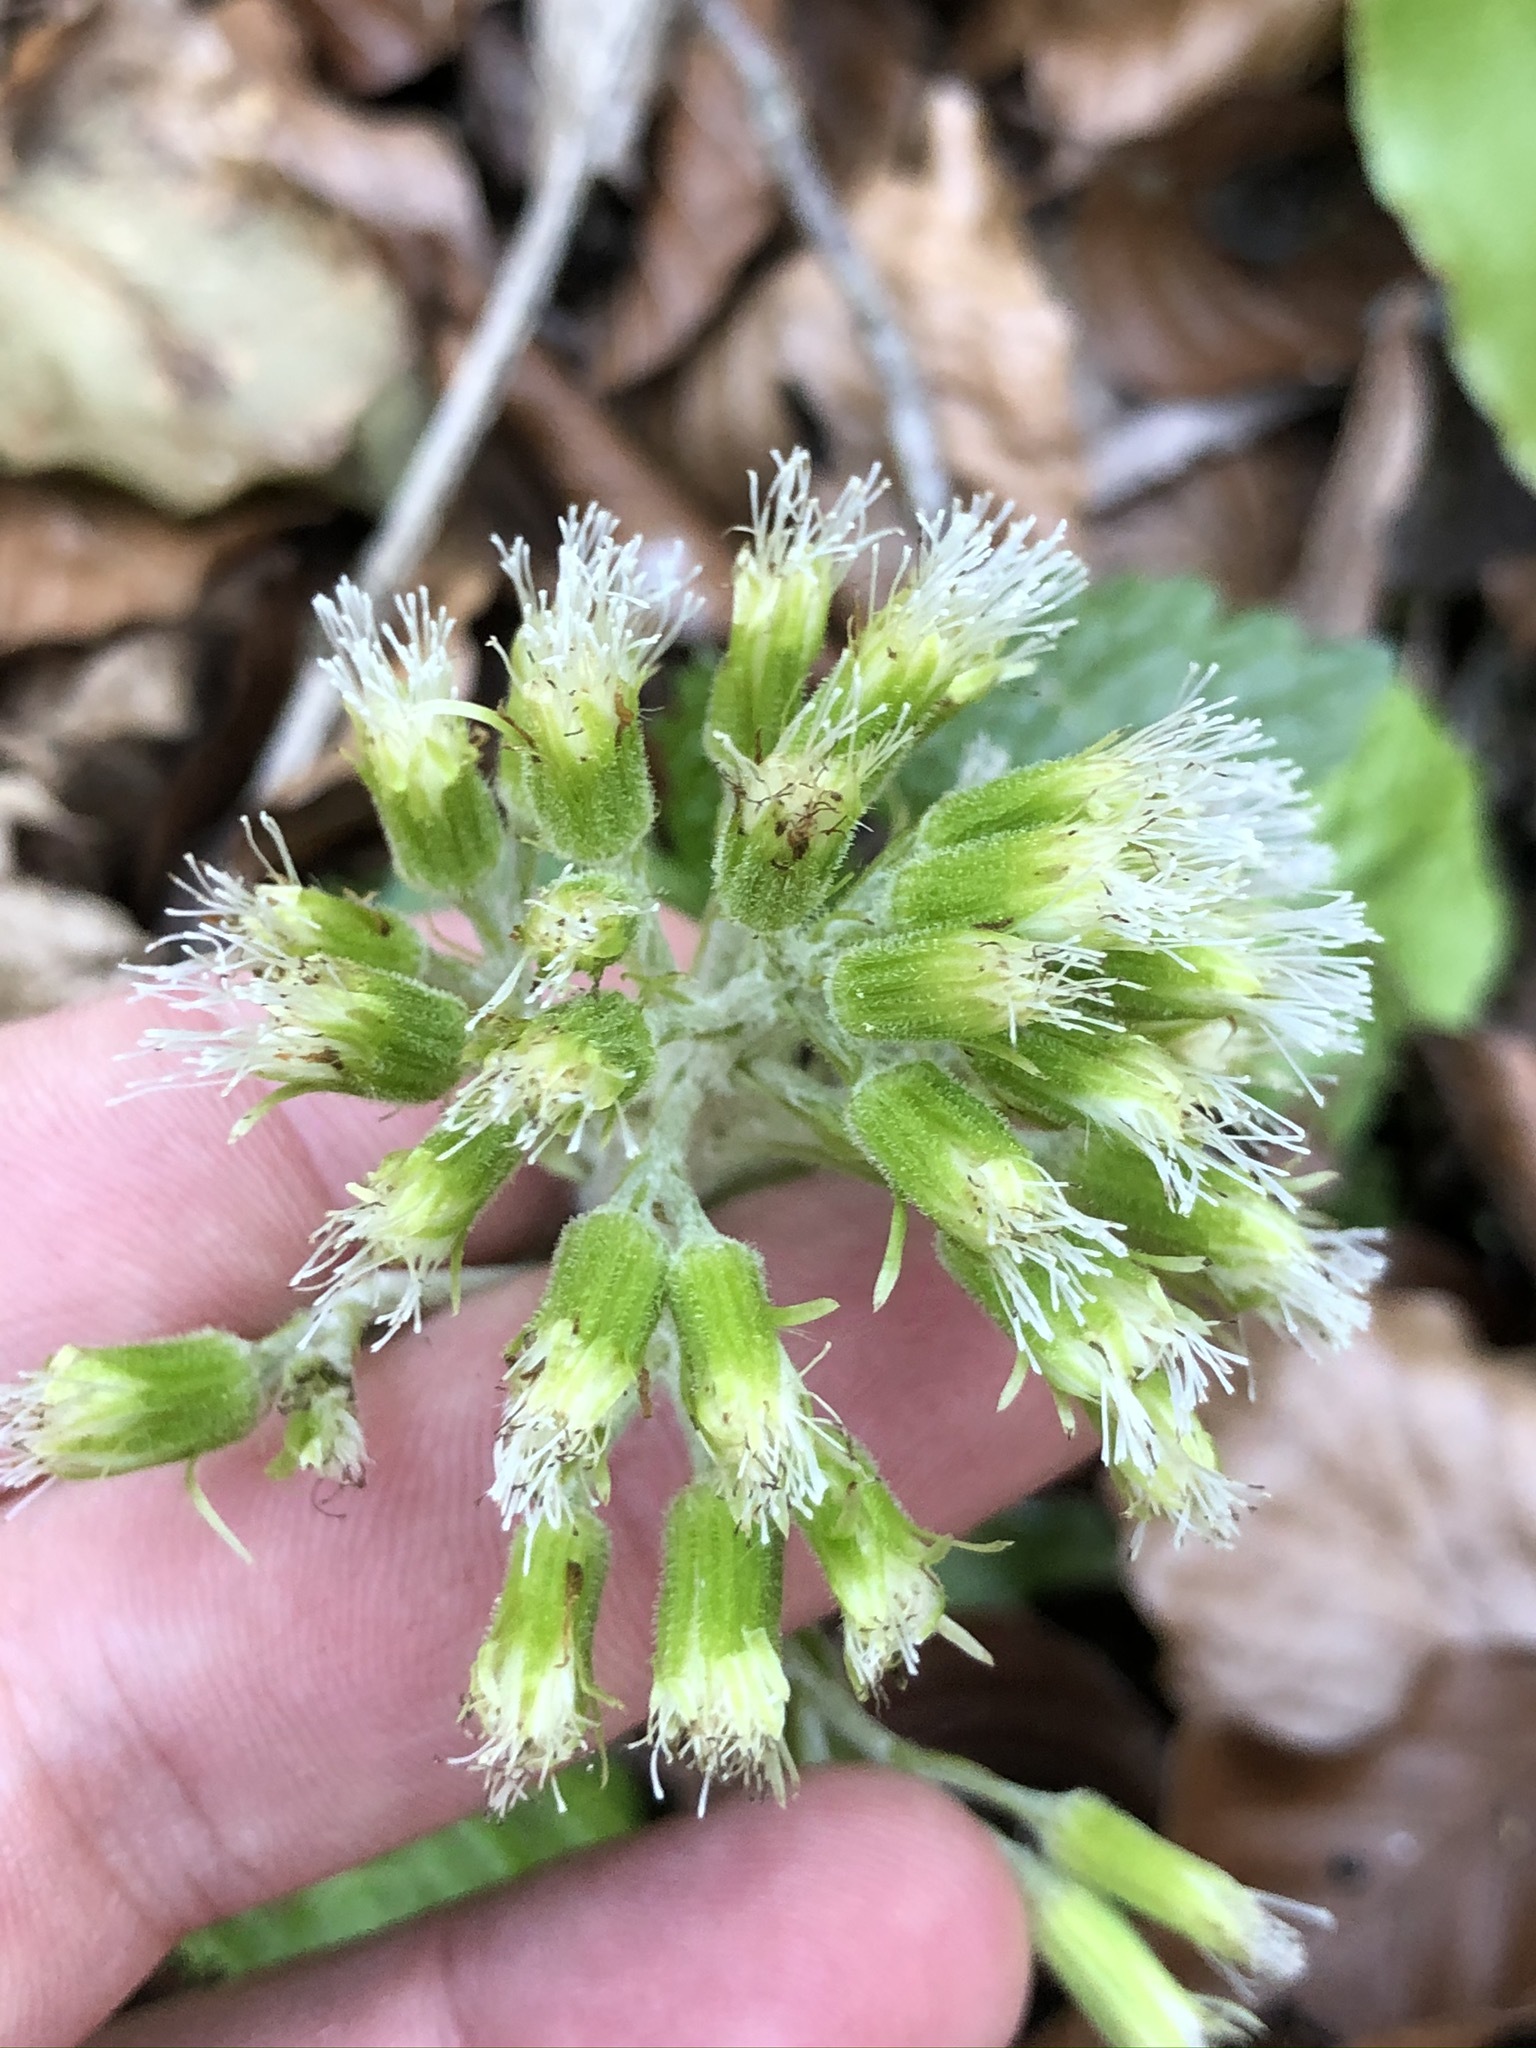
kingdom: Plantae
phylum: Tracheophyta
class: Magnoliopsida
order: Asterales
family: Asteraceae
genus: Petasites
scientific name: Petasites albus
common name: White butterbur
